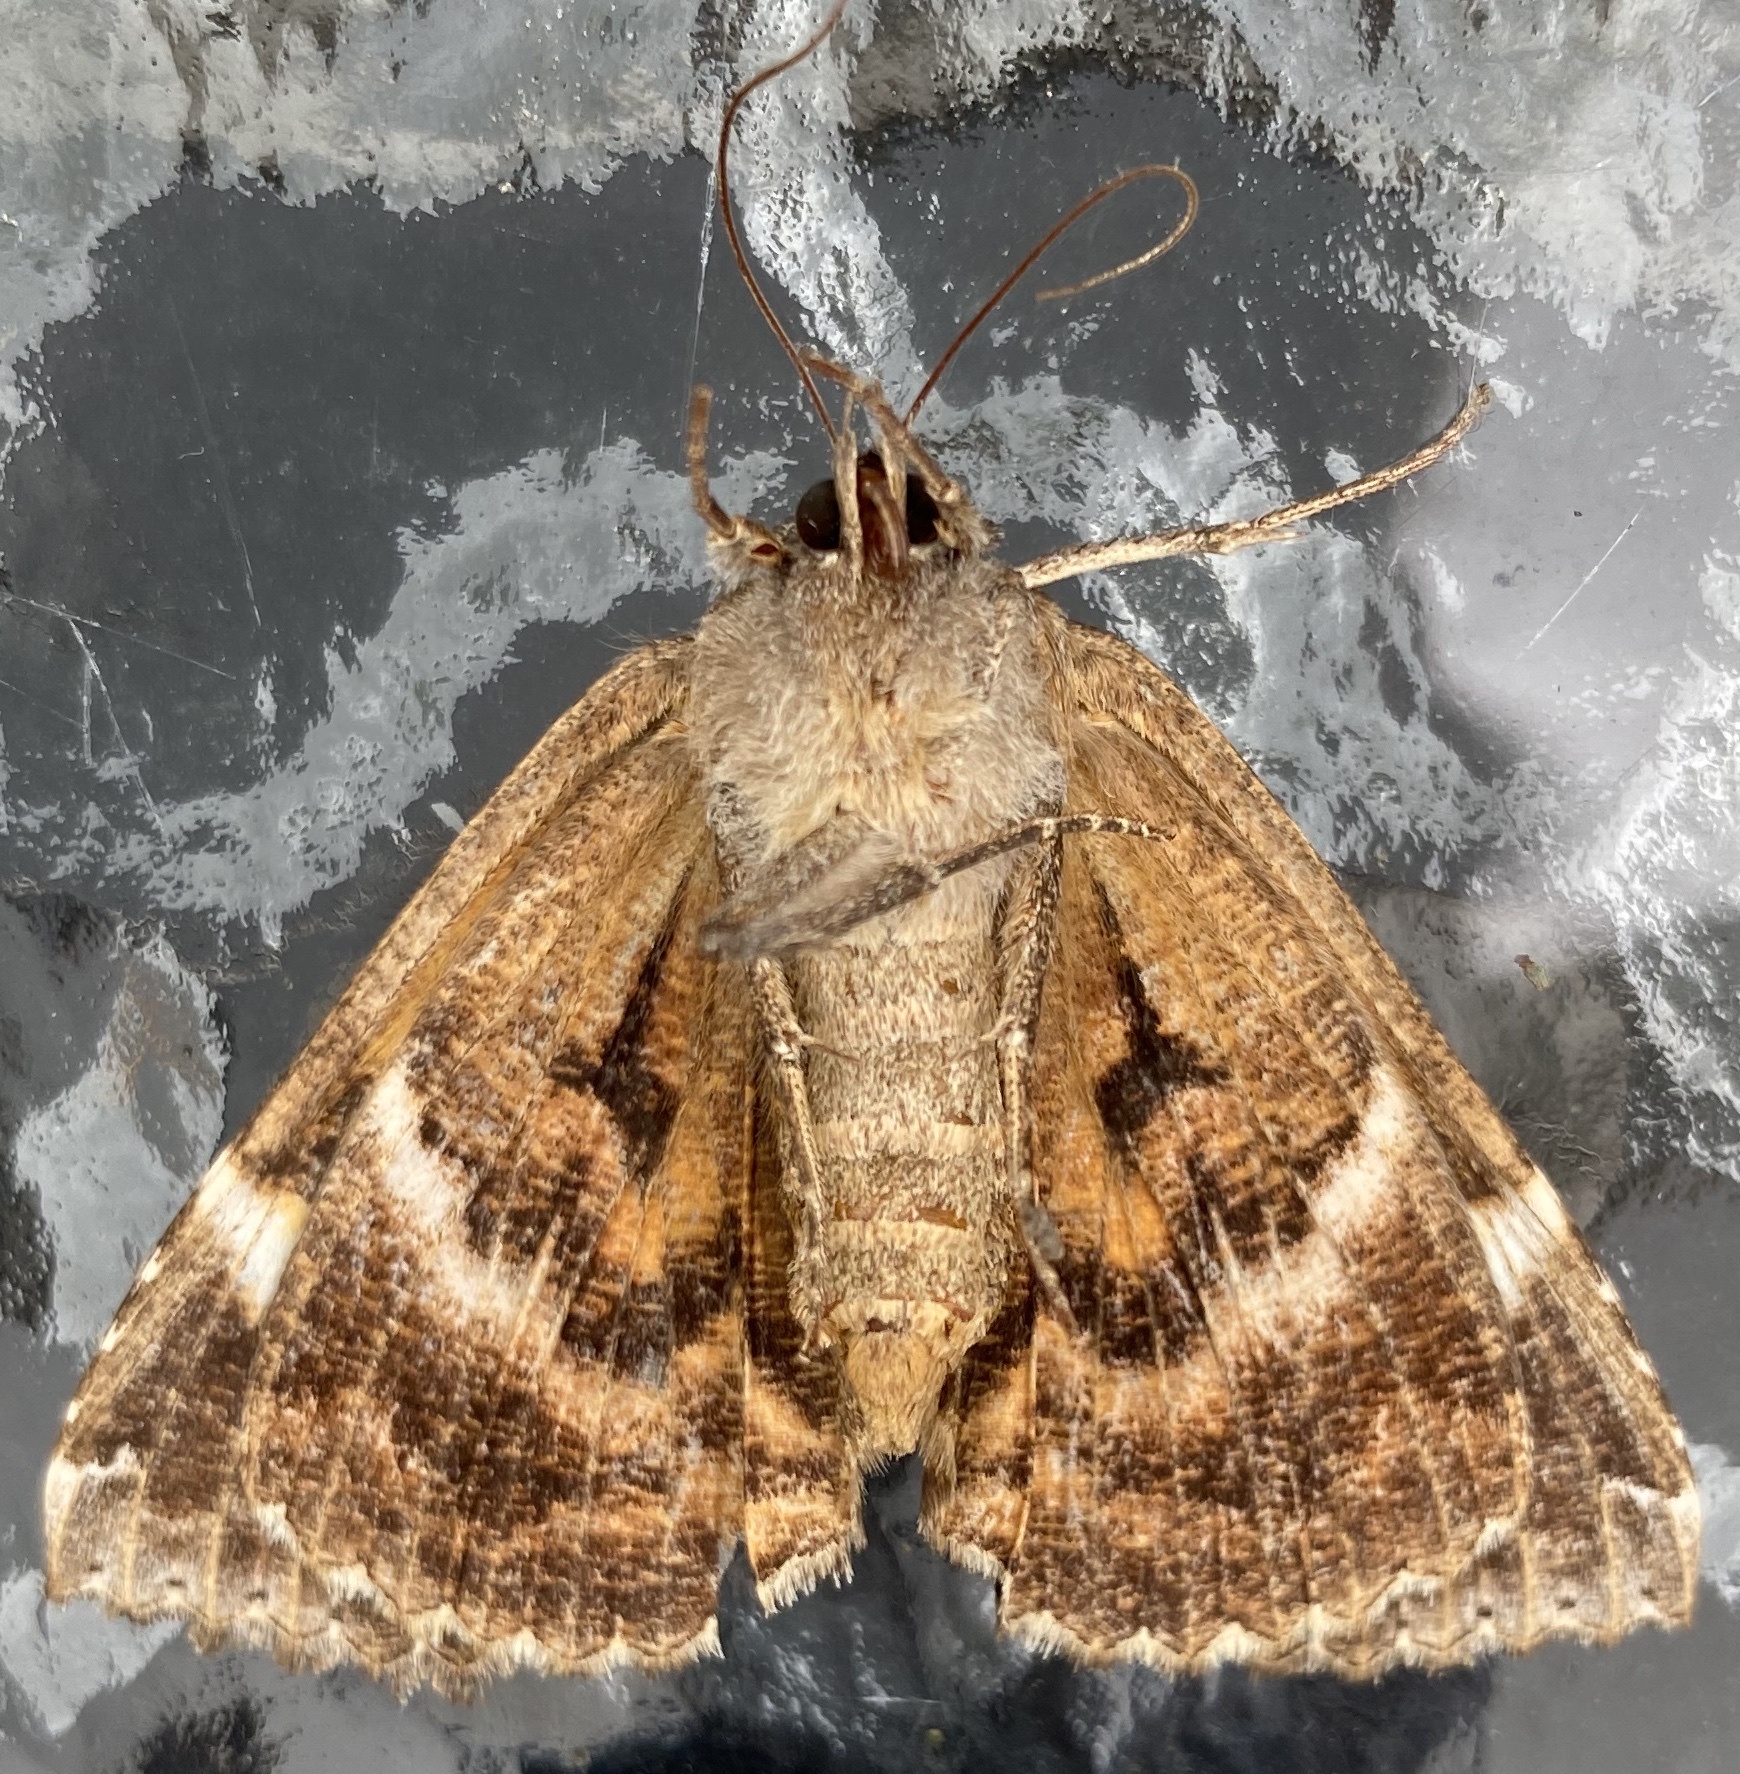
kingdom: Animalia
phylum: Arthropoda
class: Insecta
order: Lepidoptera
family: Erebidae
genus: Euparthenos
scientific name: Euparthenos nubilis
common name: Locust underwing
